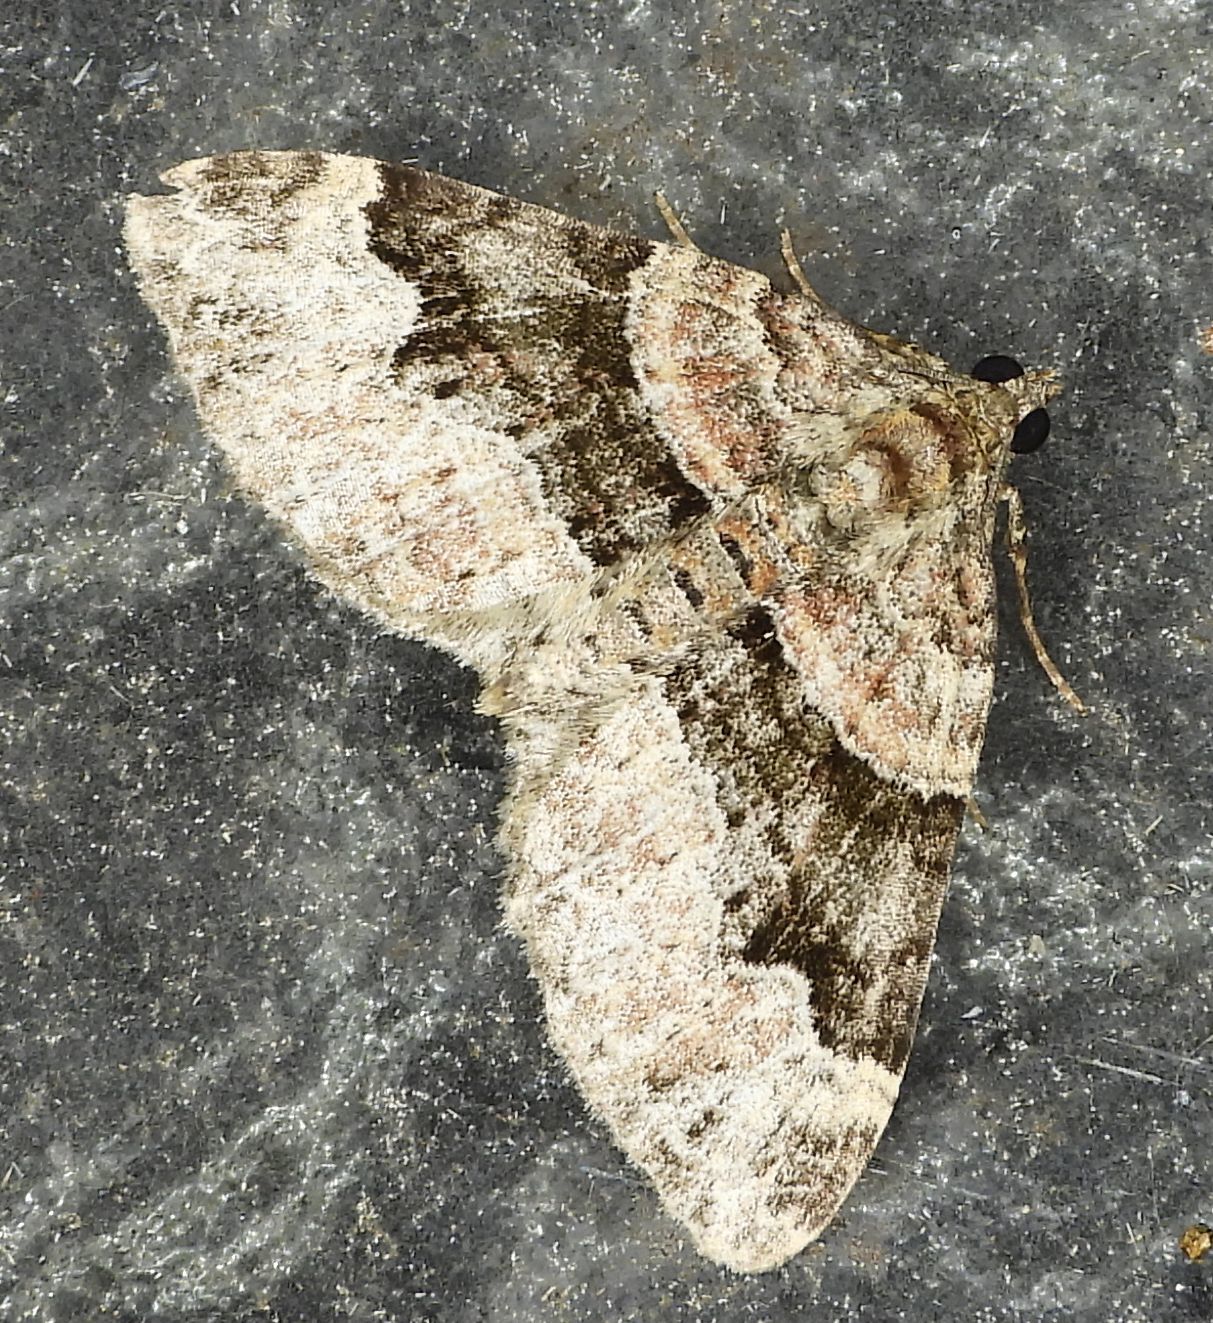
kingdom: Animalia
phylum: Arthropoda
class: Insecta
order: Lepidoptera
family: Geometridae
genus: Xanthorhoe
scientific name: Xanthorhoe lacustrata
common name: Toothed brown carpet
